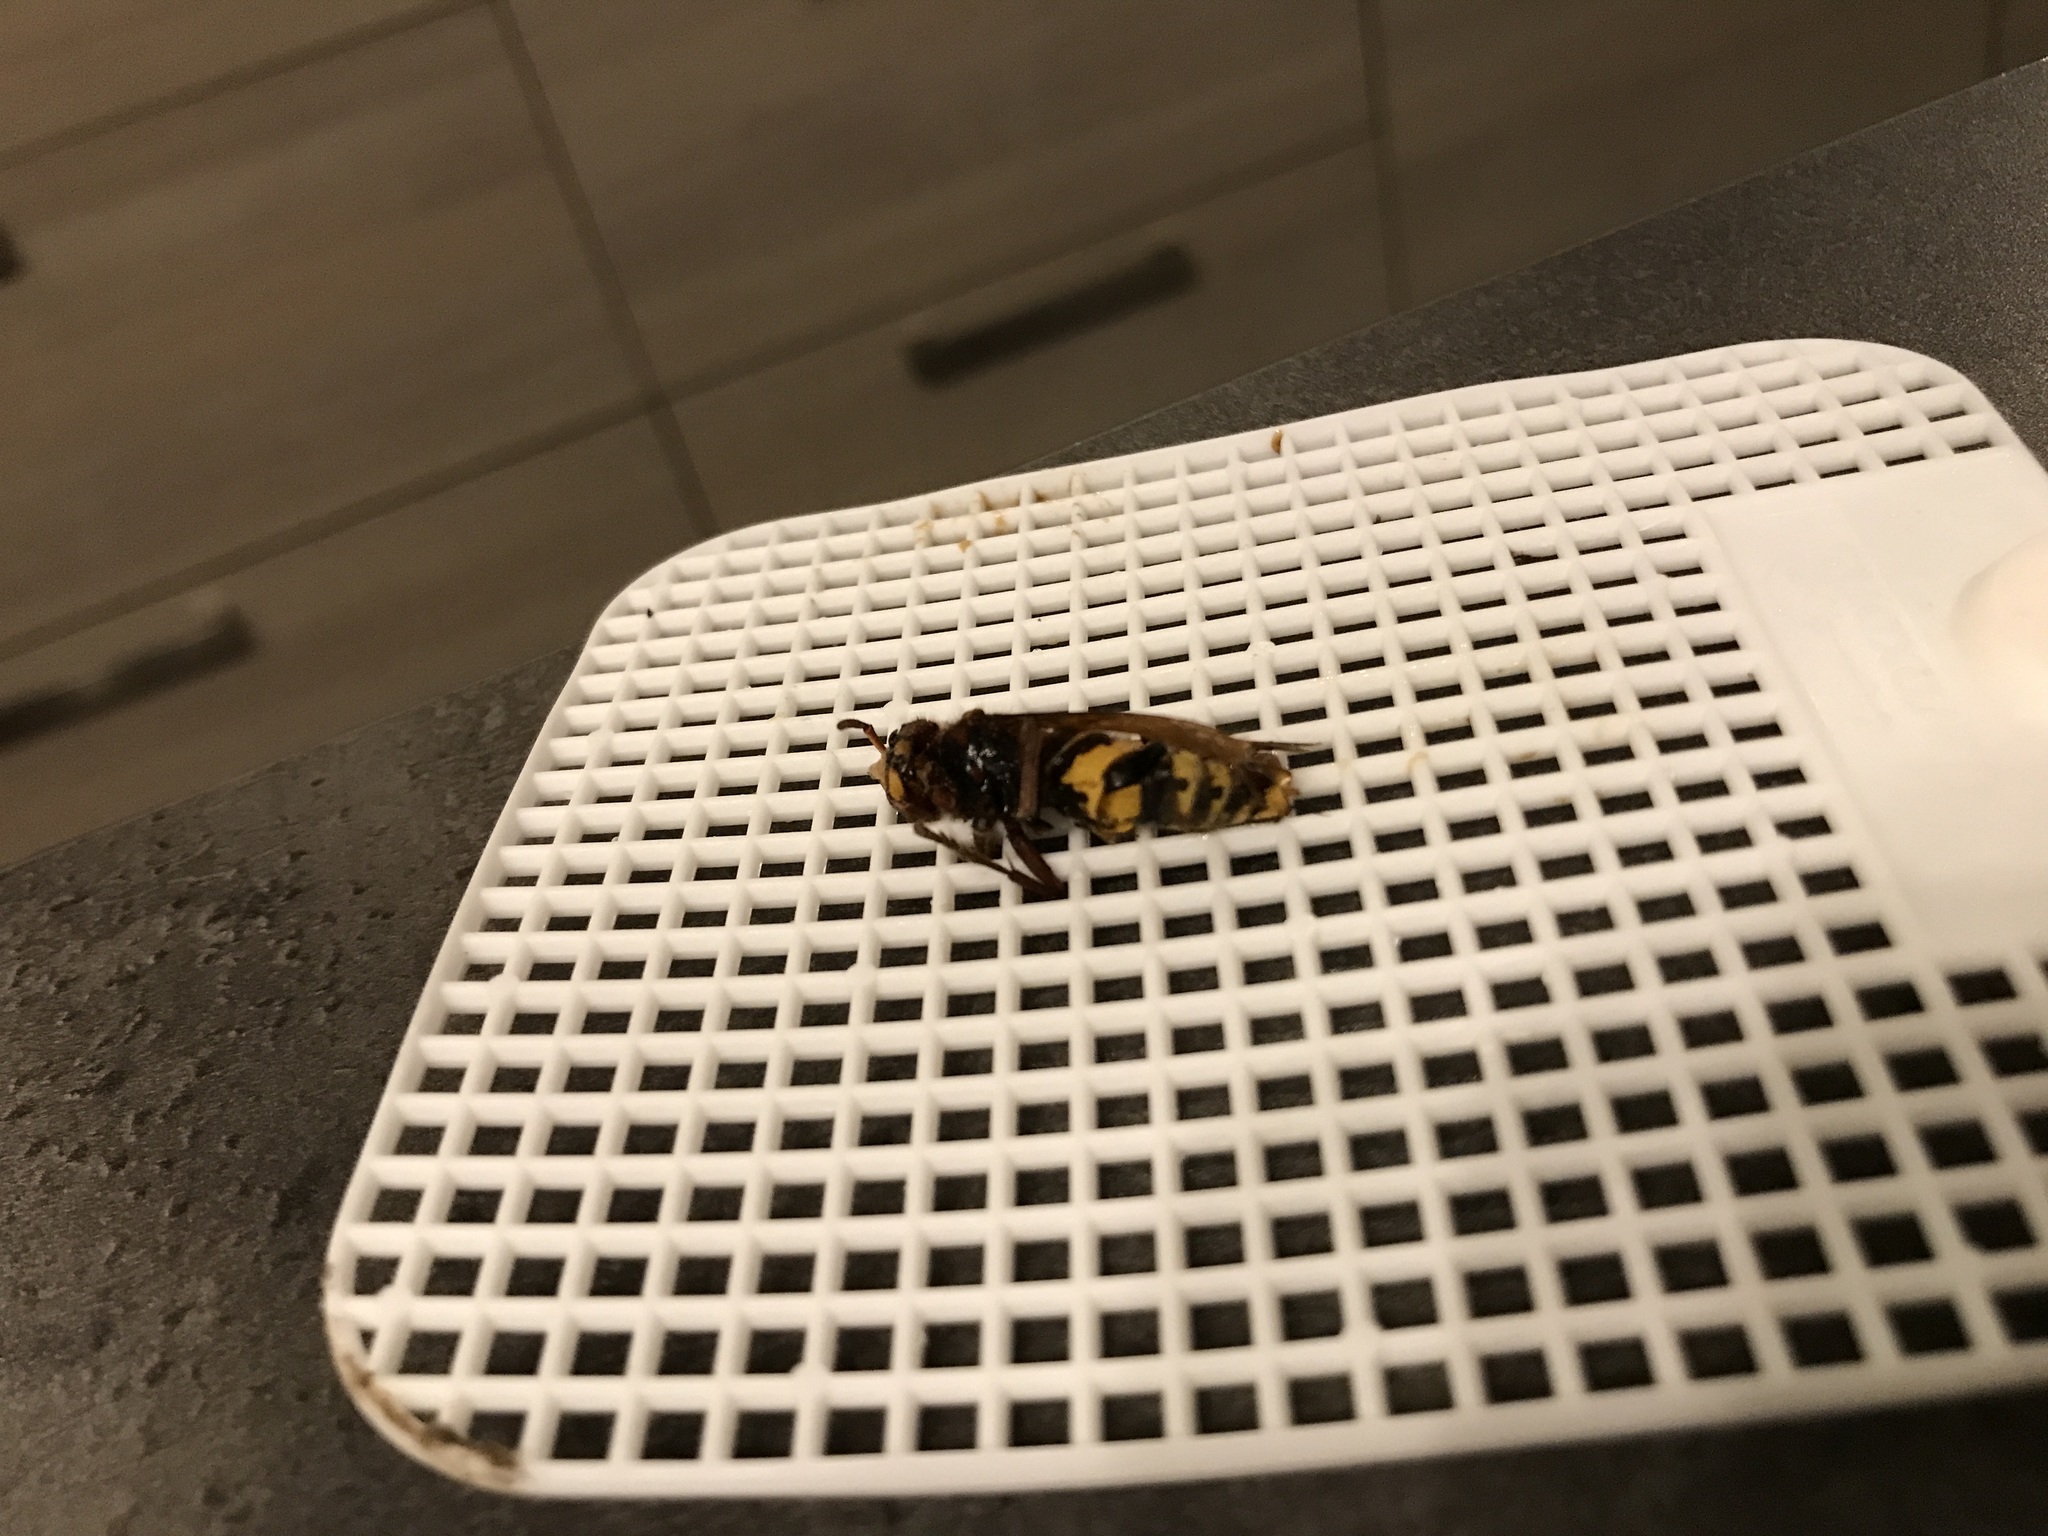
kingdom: Animalia
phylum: Arthropoda
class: Insecta
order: Hymenoptera
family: Vespidae
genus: Vespa
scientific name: Vespa crabro
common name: Hornet
